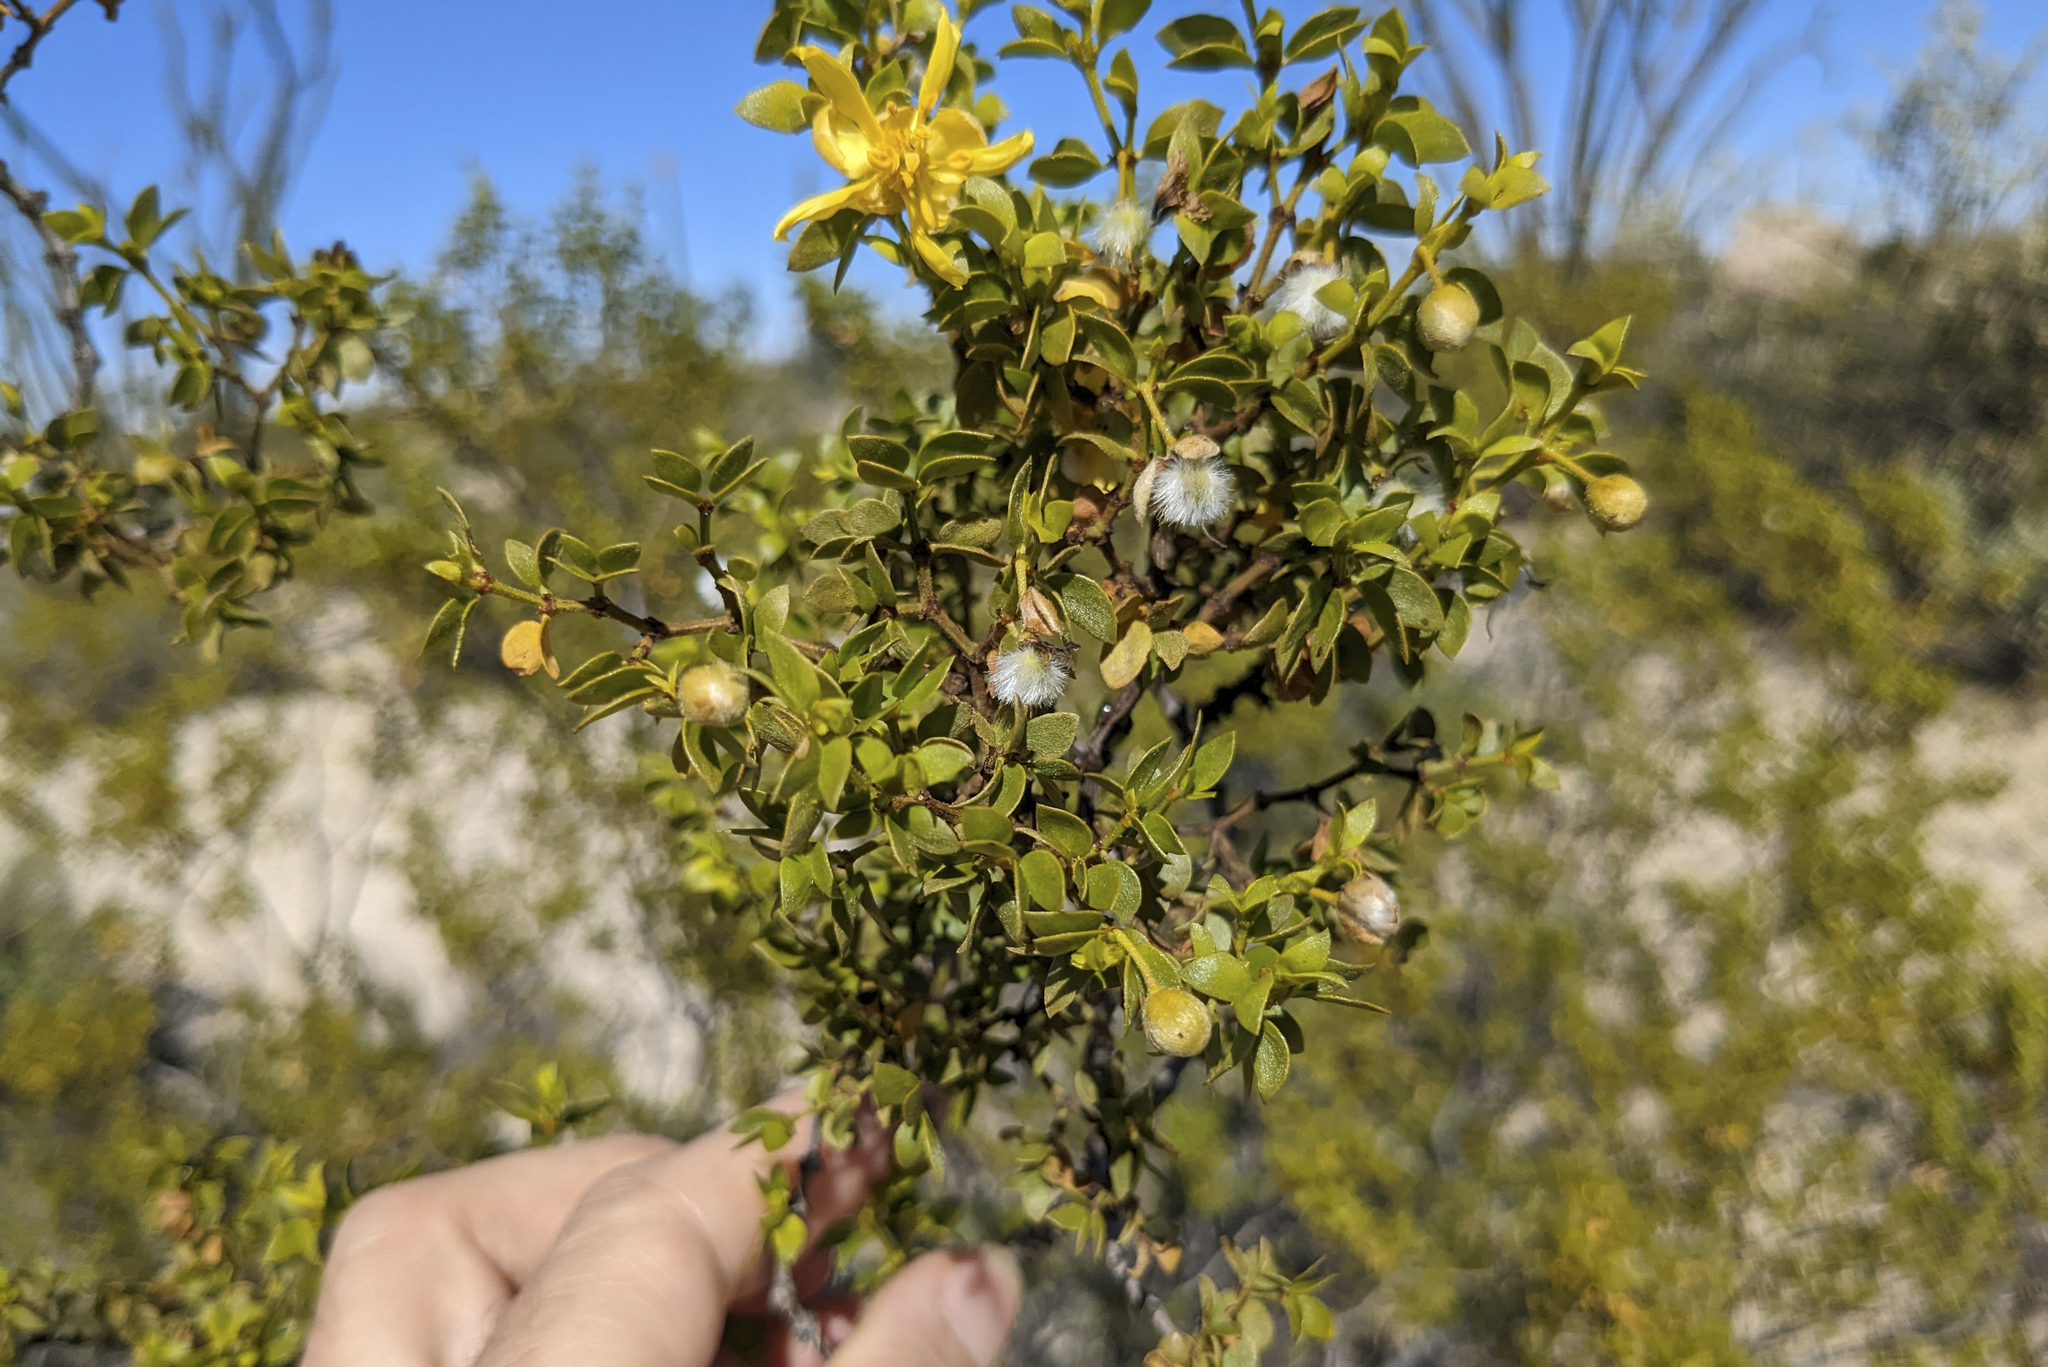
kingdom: Plantae
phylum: Tracheophyta
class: Magnoliopsida
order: Zygophyllales
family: Zygophyllaceae
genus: Larrea
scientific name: Larrea tridentata
